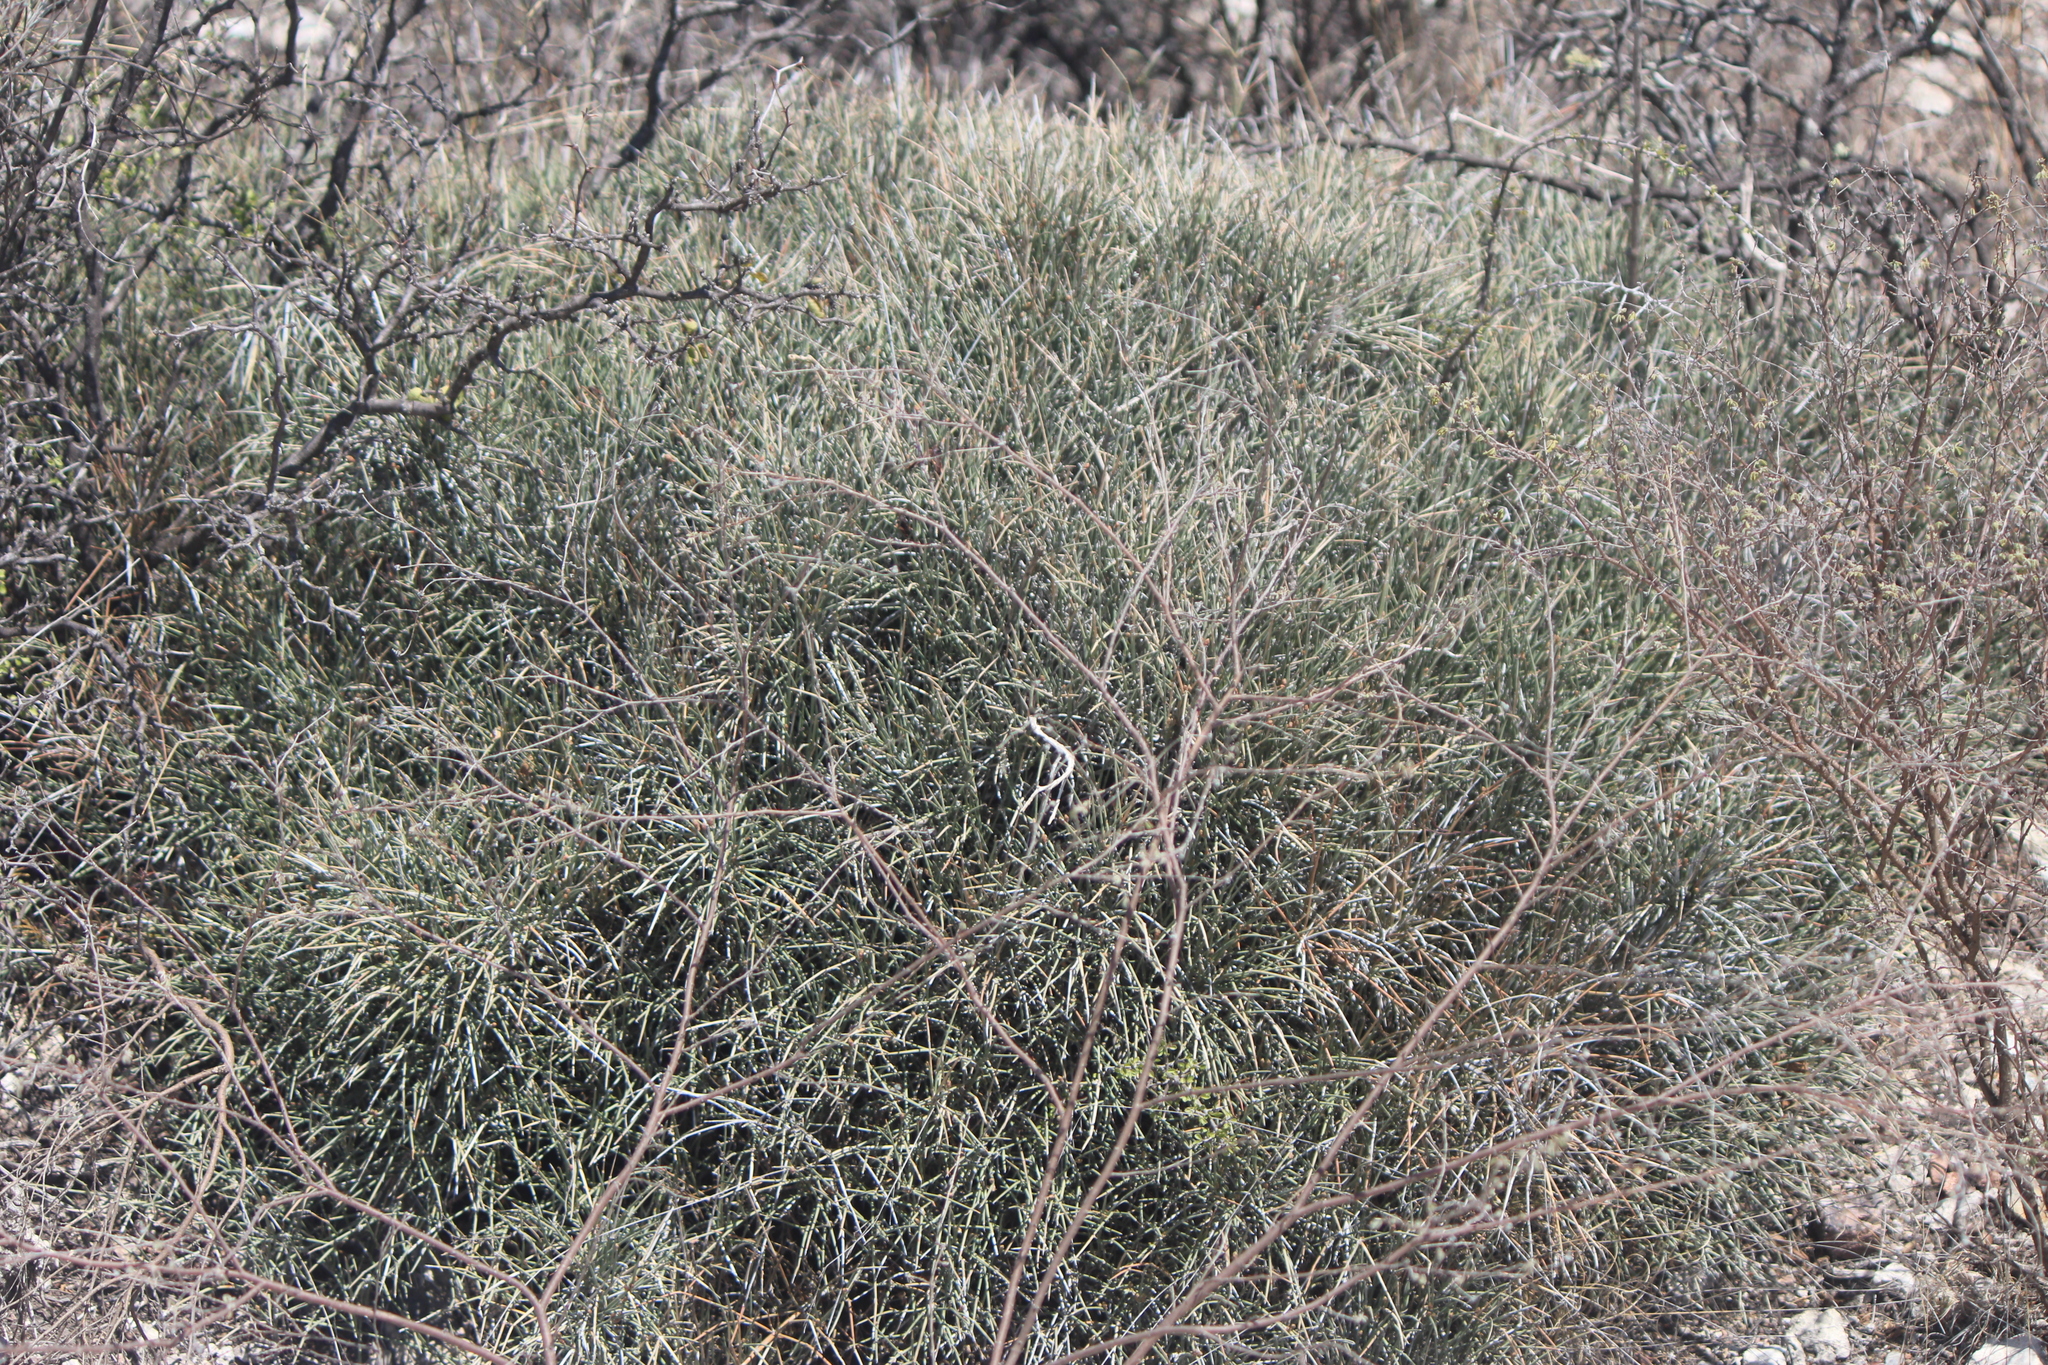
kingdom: Plantae
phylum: Tracheophyta
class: Gnetopsida
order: Ephedrales
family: Ephedraceae
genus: Ephedra
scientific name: Ephedra aspera
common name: Boundary ephedra
